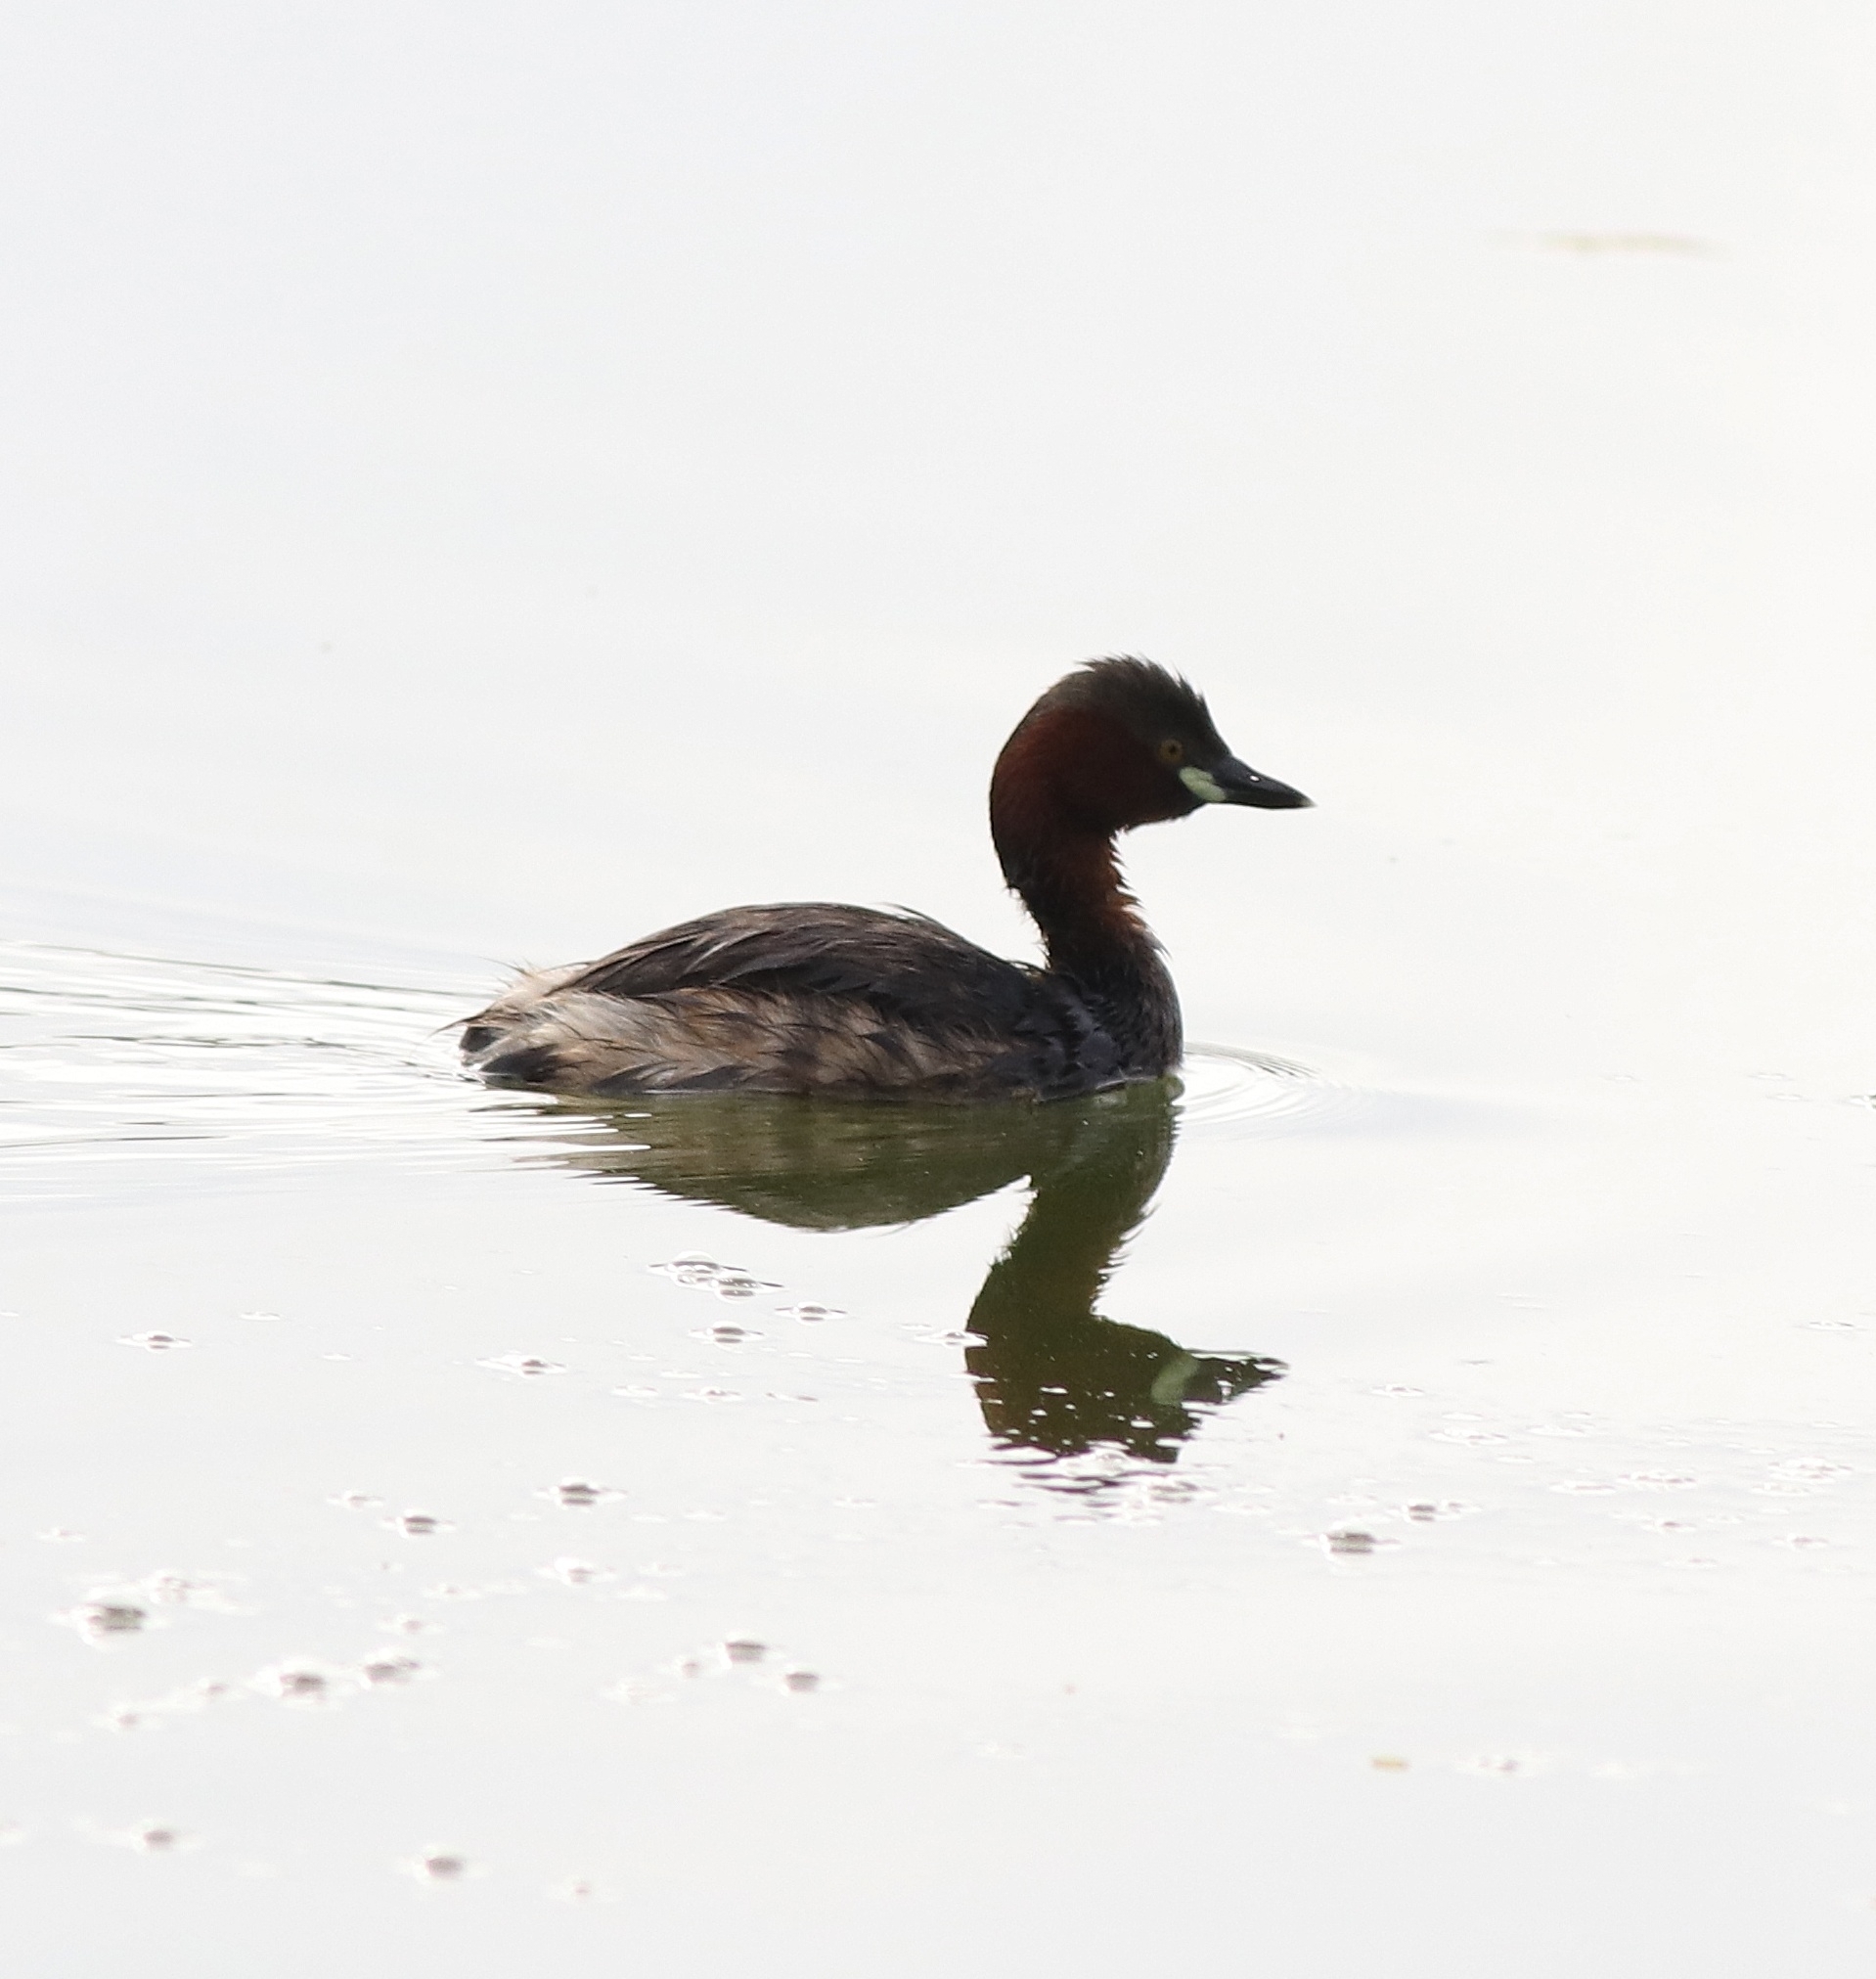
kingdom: Animalia
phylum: Chordata
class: Aves
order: Podicipediformes
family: Podicipedidae
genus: Tachybaptus
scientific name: Tachybaptus ruficollis
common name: Little grebe
